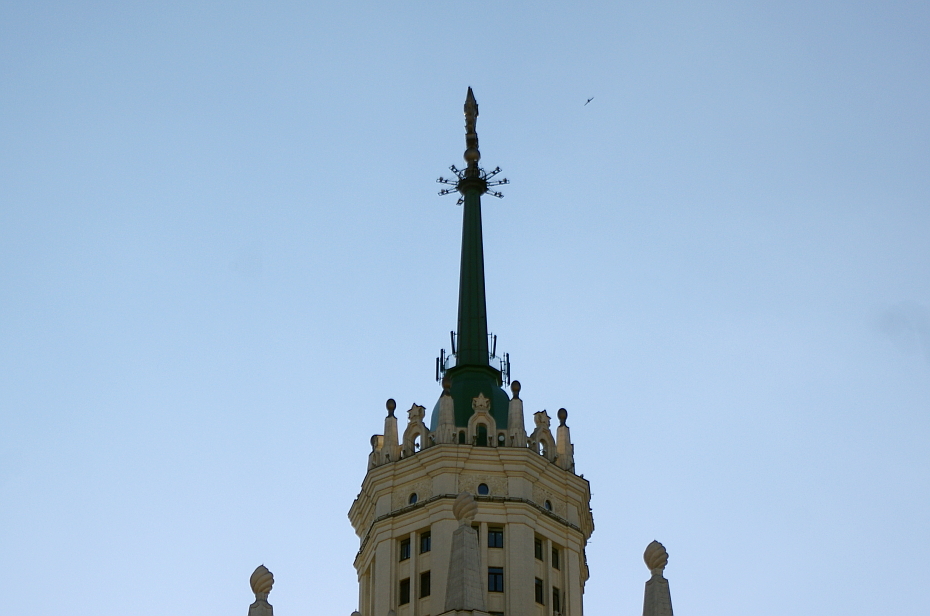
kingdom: Animalia
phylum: Chordata
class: Aves
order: Falconiformes
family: Falconidae
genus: Falco
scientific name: Falco peregrinus
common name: Peregrine falcon
